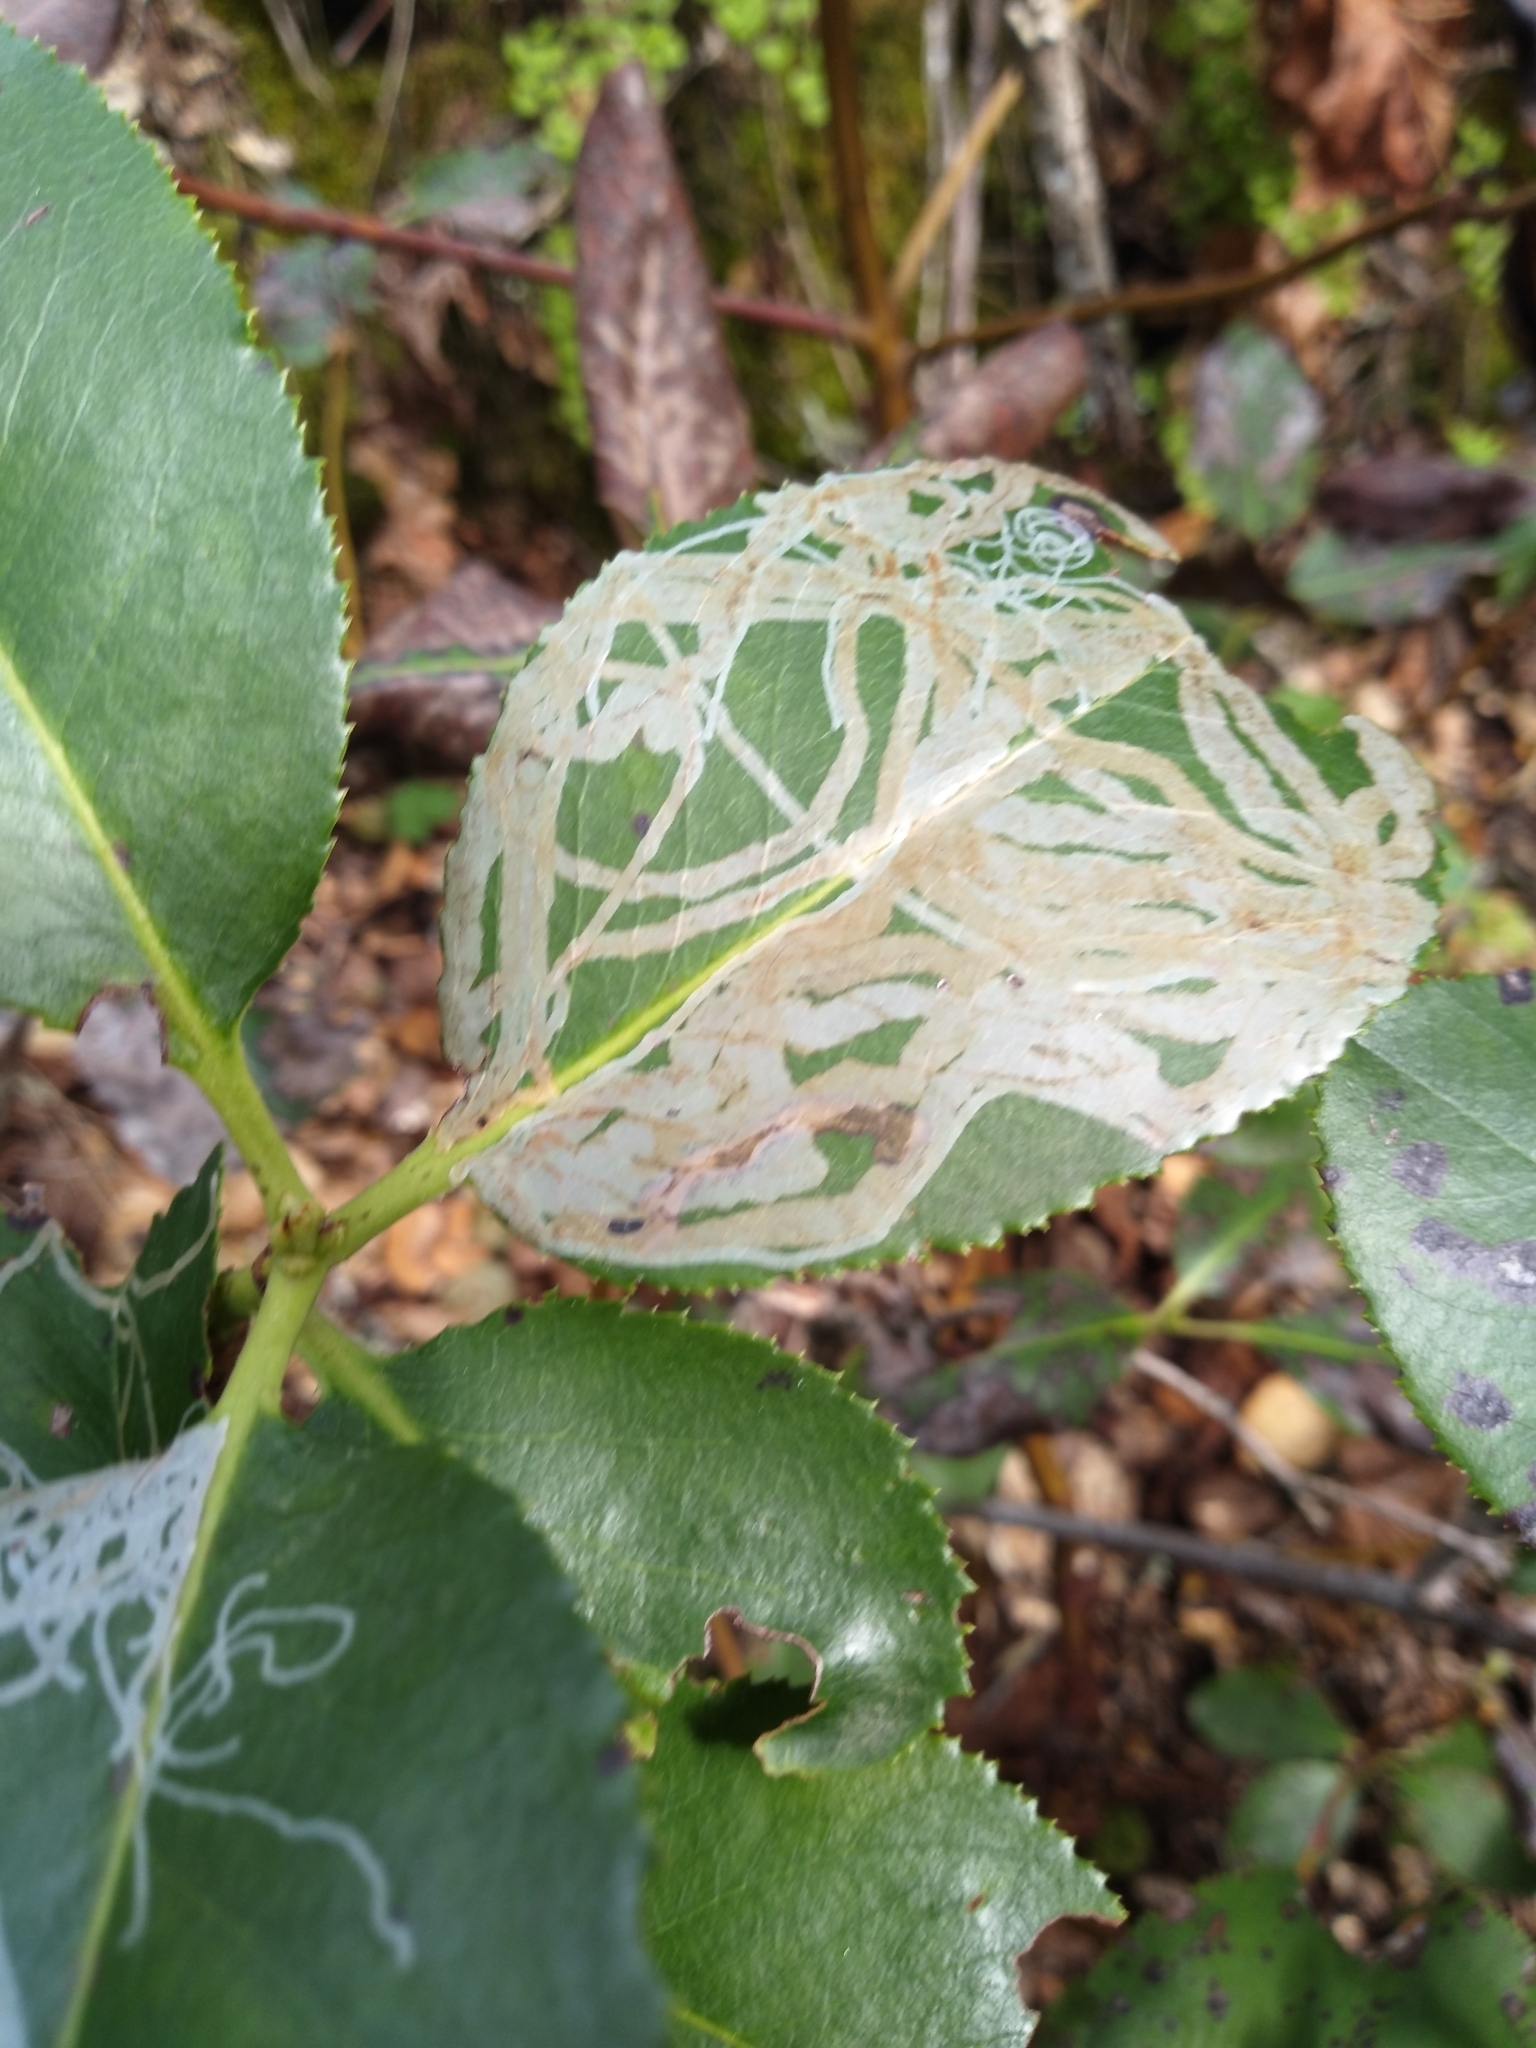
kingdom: Animalia
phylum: Arthropoda
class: Insecta
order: Lepidoptera
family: Gracillariidae
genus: Marmara
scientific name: Marmara arbutiella
